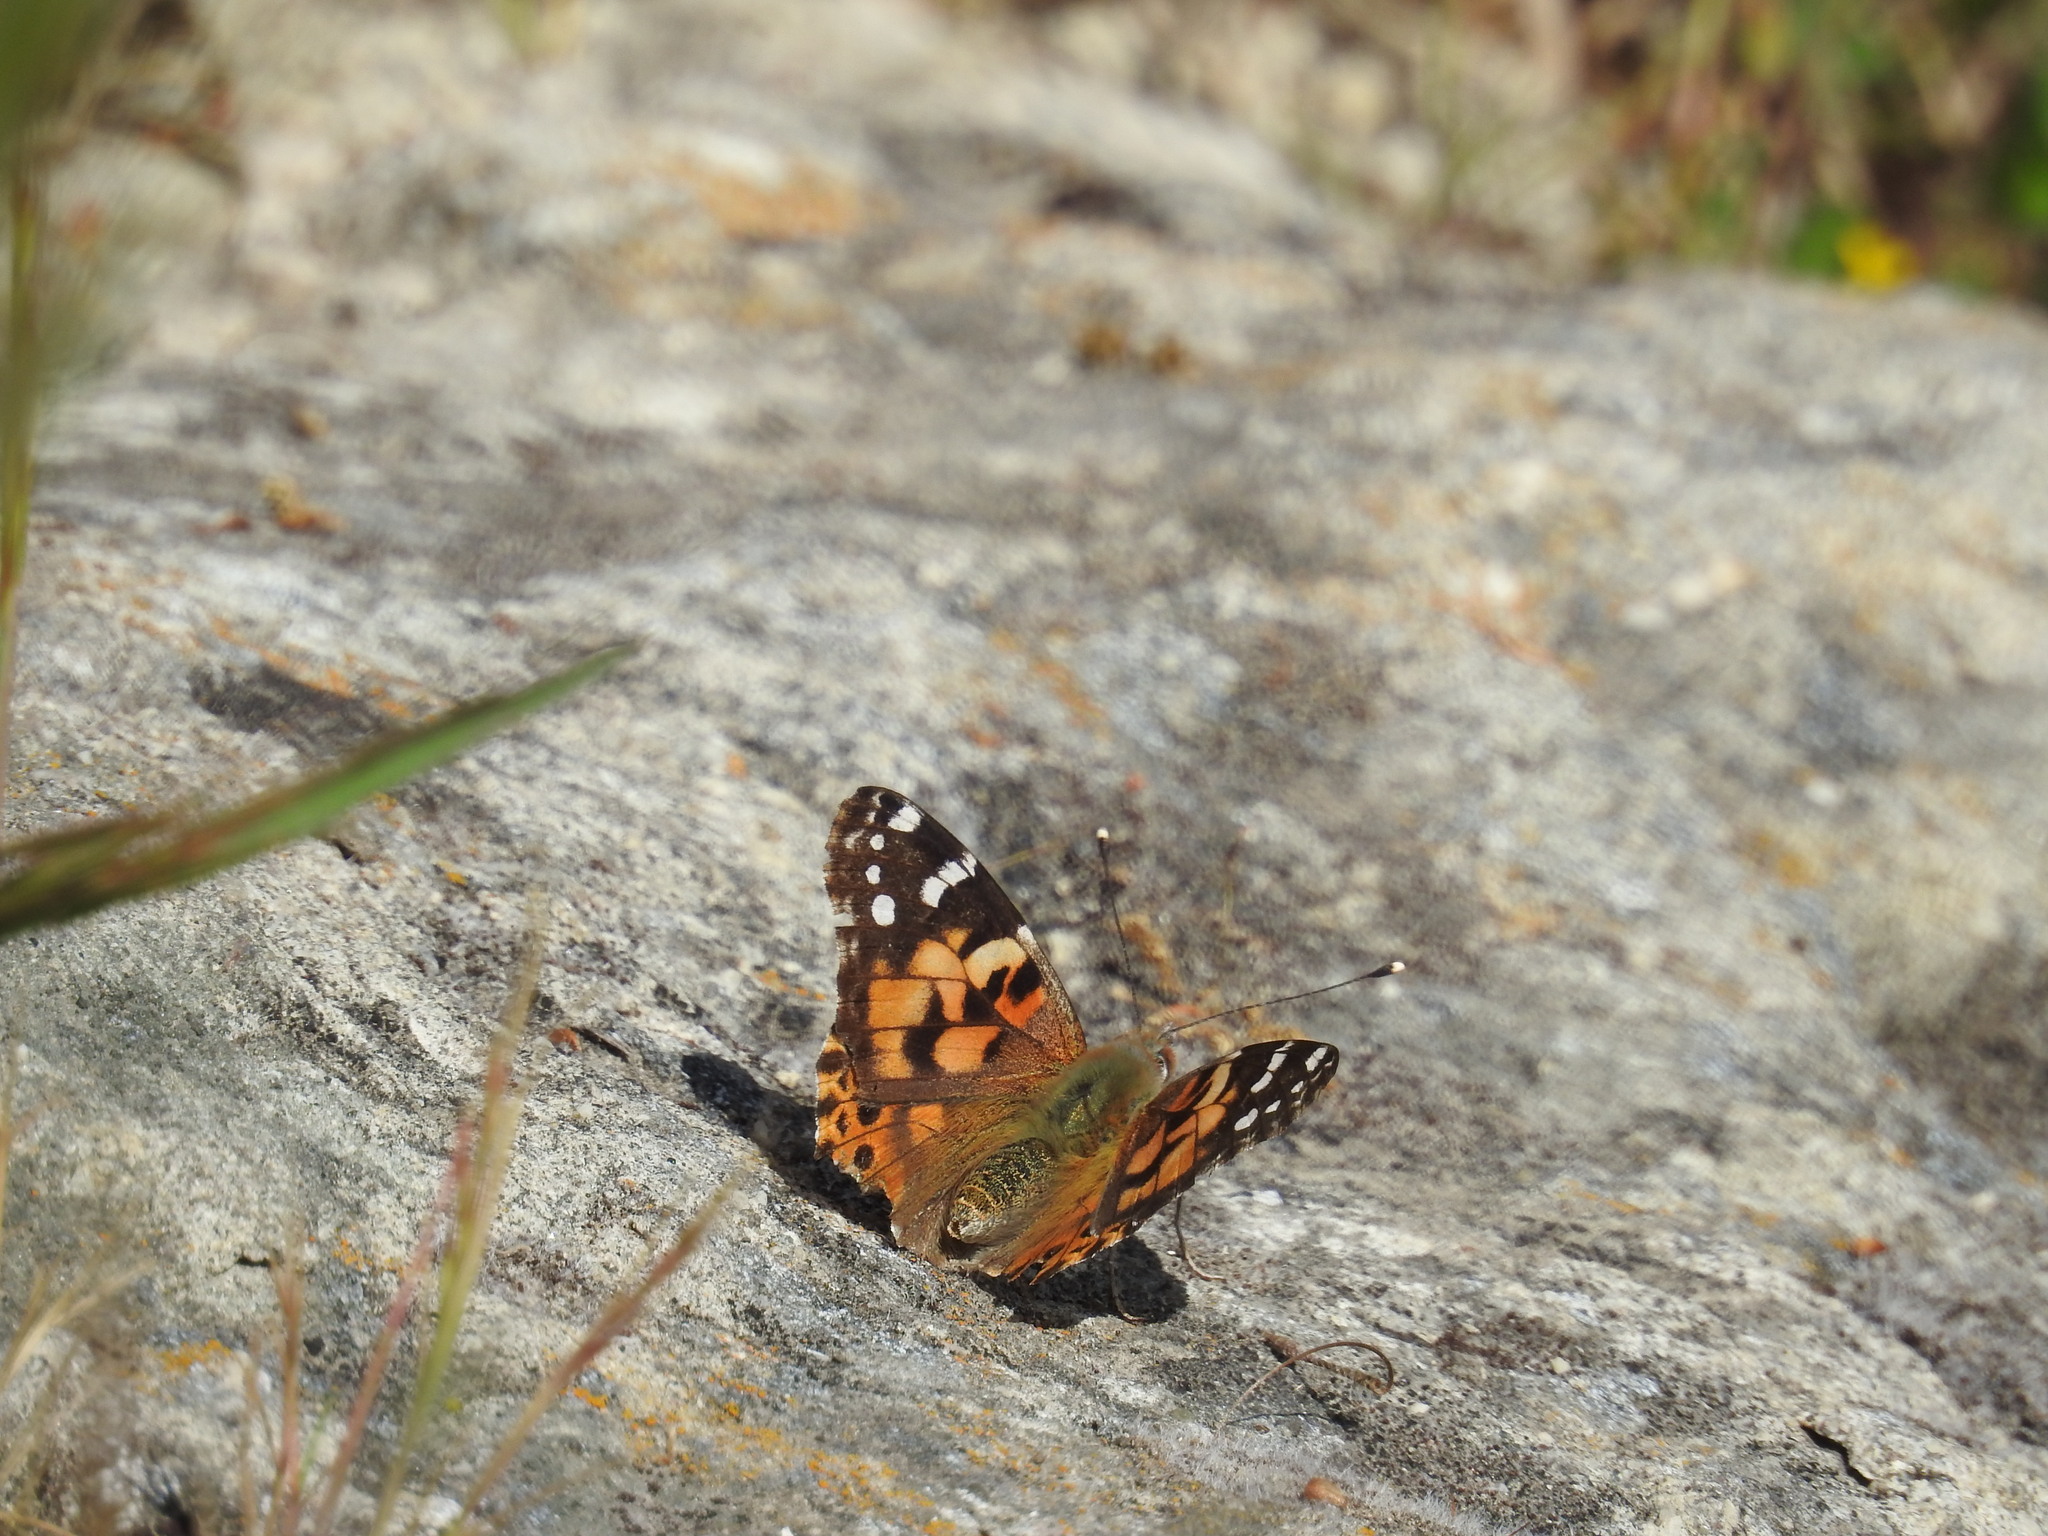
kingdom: Animalia
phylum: Arthropoda
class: Insecta
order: Lepidoptera
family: Nymphalidae
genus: Vanessa
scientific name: Vanessa cardui
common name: Painted lady
